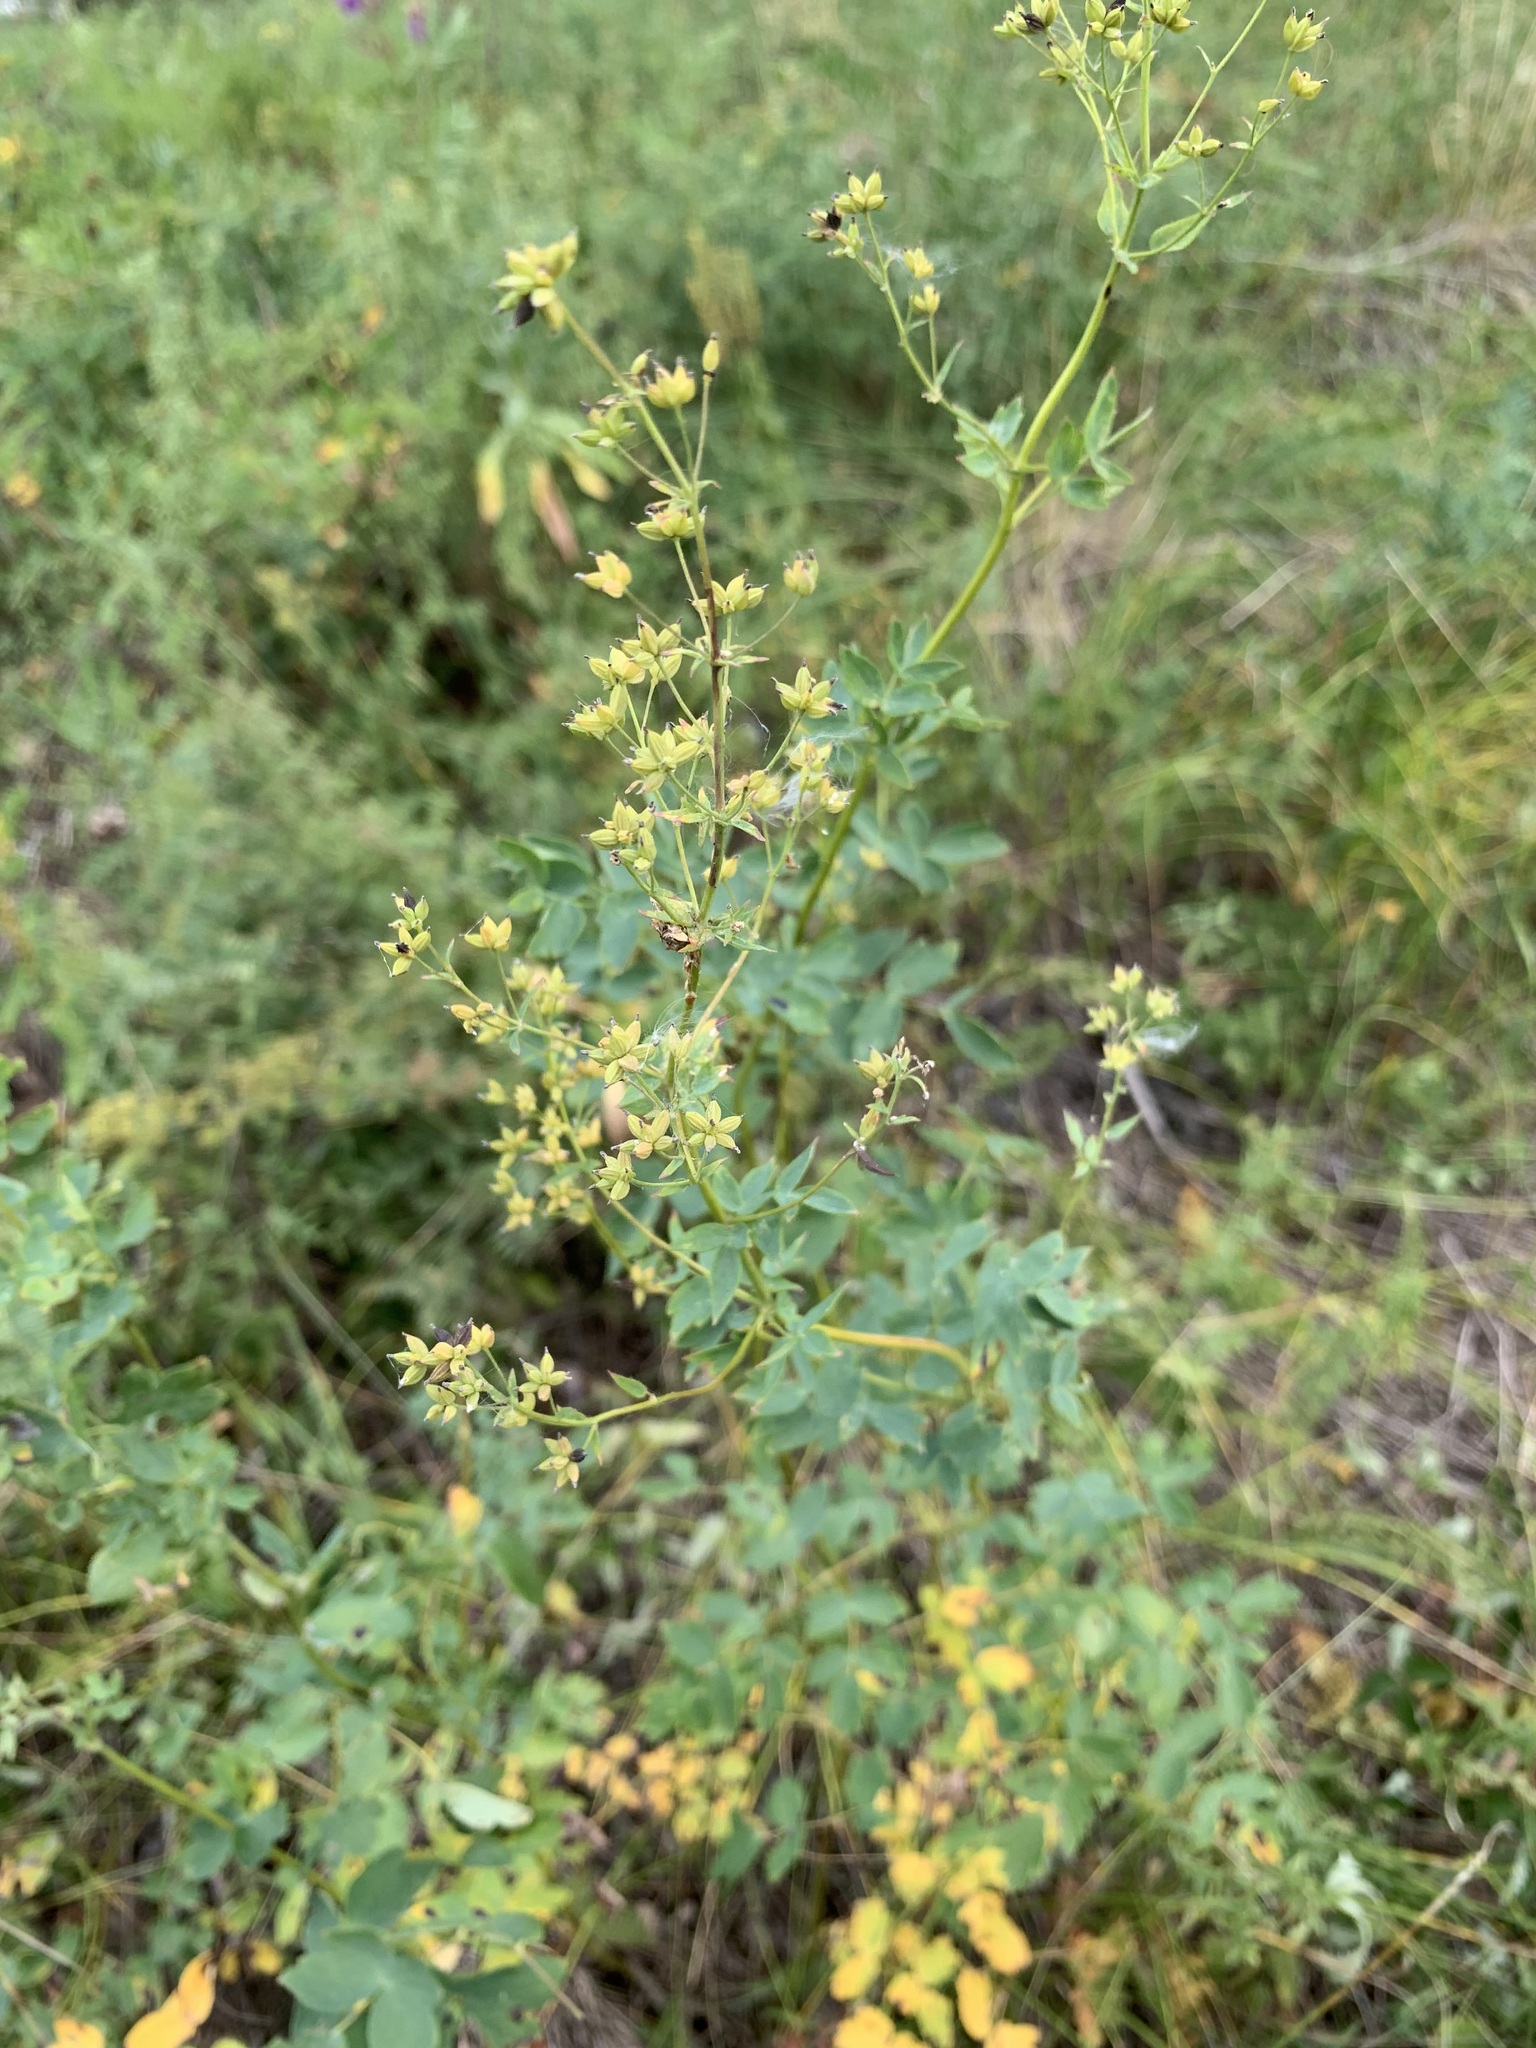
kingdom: Plantae
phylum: Tracheophyta
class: Magnoliopsida
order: Ranunculales
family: Ranunculaceae
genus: Thalictrum
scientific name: Thalictrum minus
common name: Lesser meadow-rue
